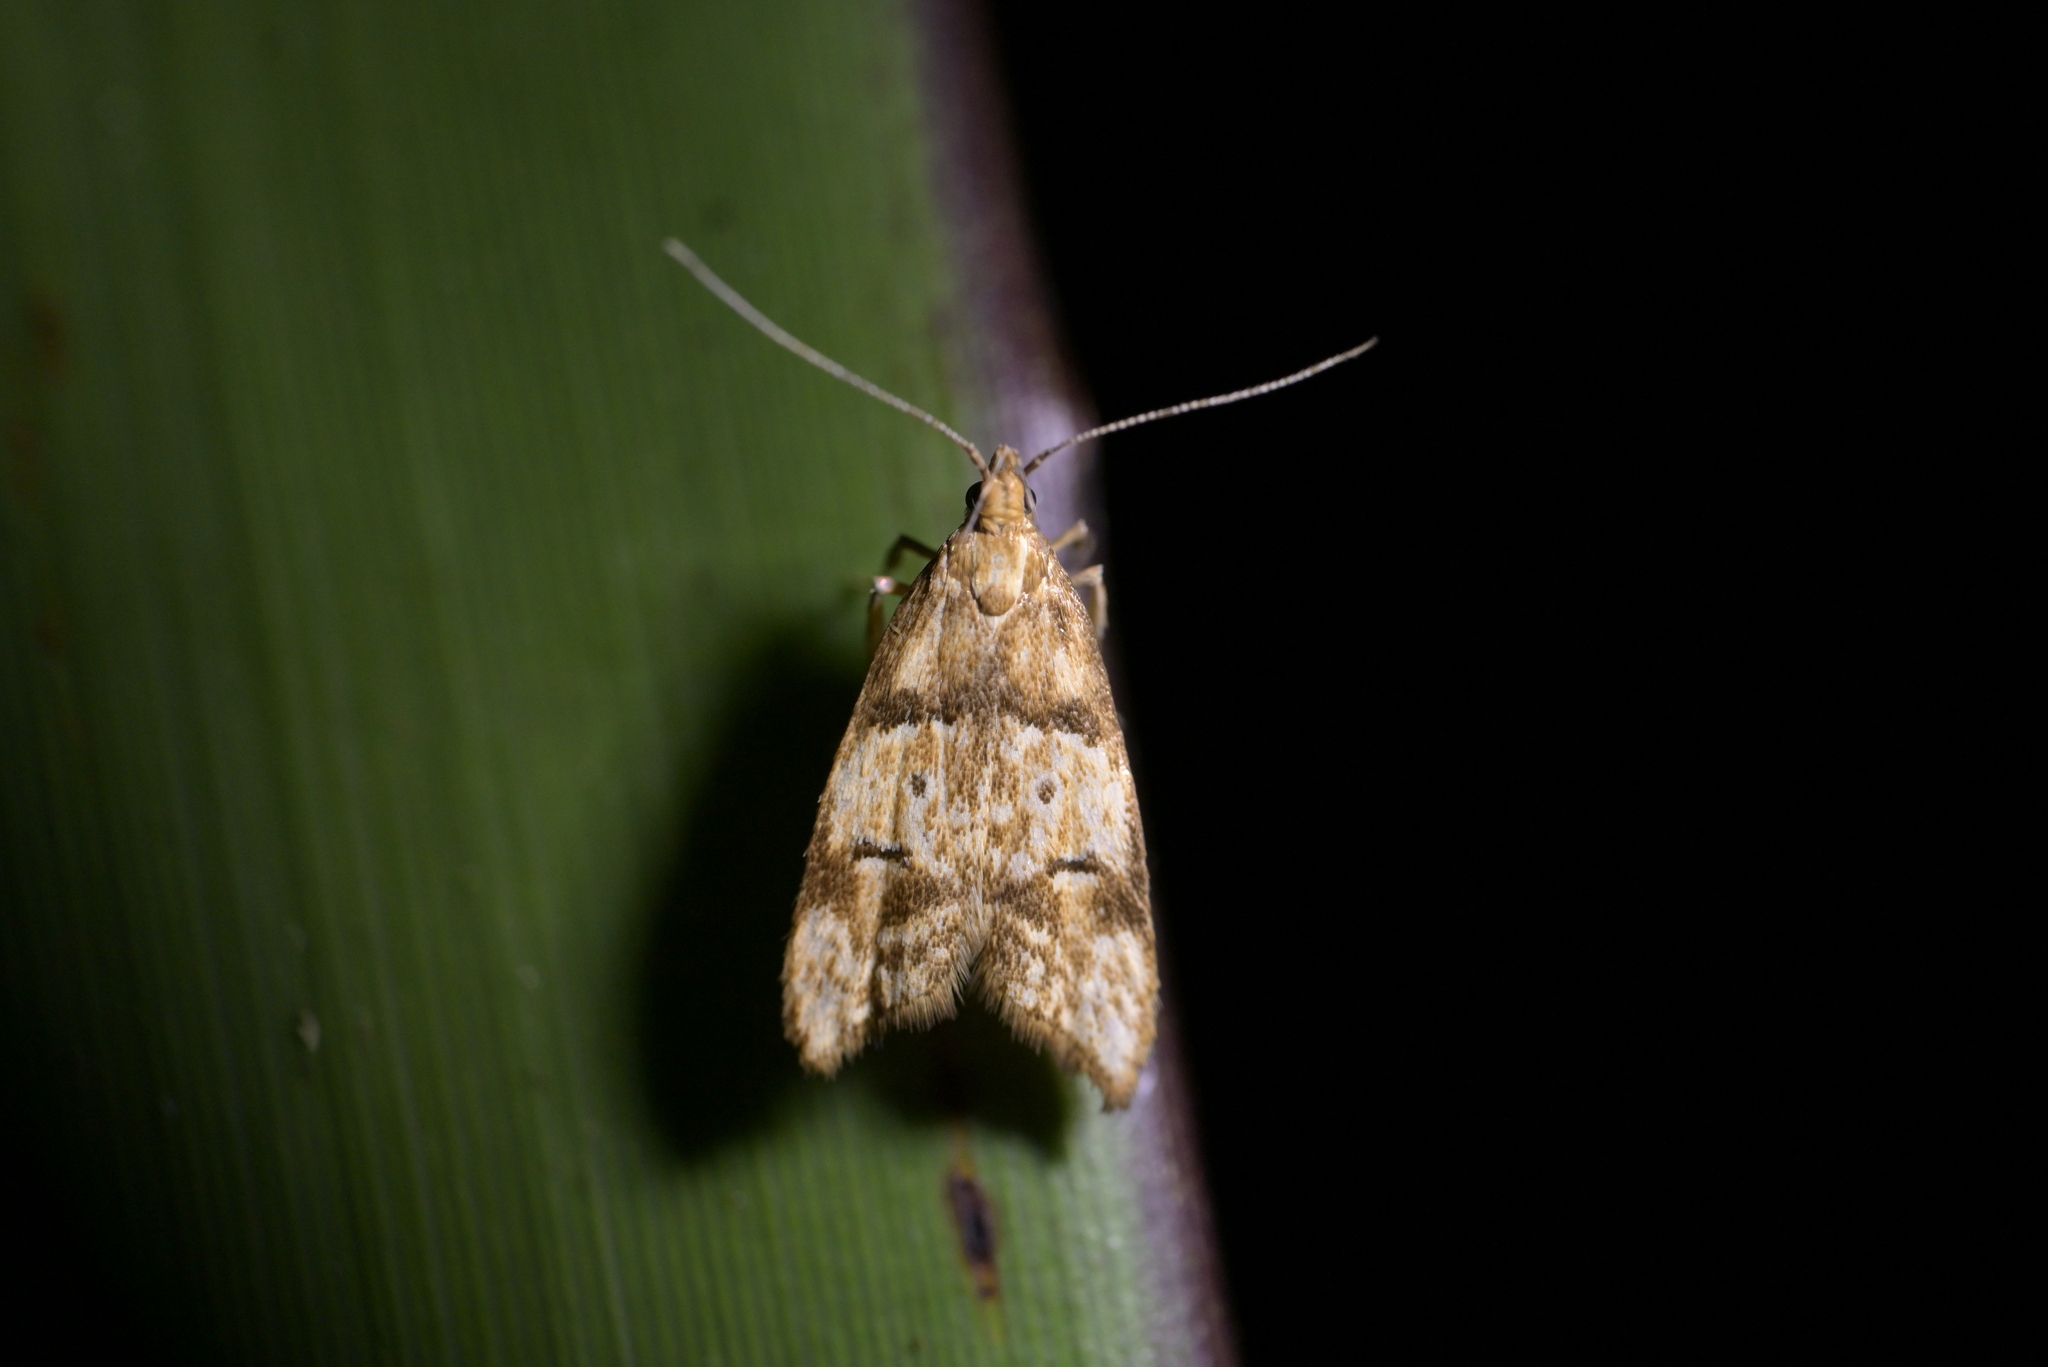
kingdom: Animalia
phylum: Arthropoda
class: Insecta
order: Lepidoptera
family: Oecophoridae
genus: Gymnobathra
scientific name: Gymnobathra hamatella
